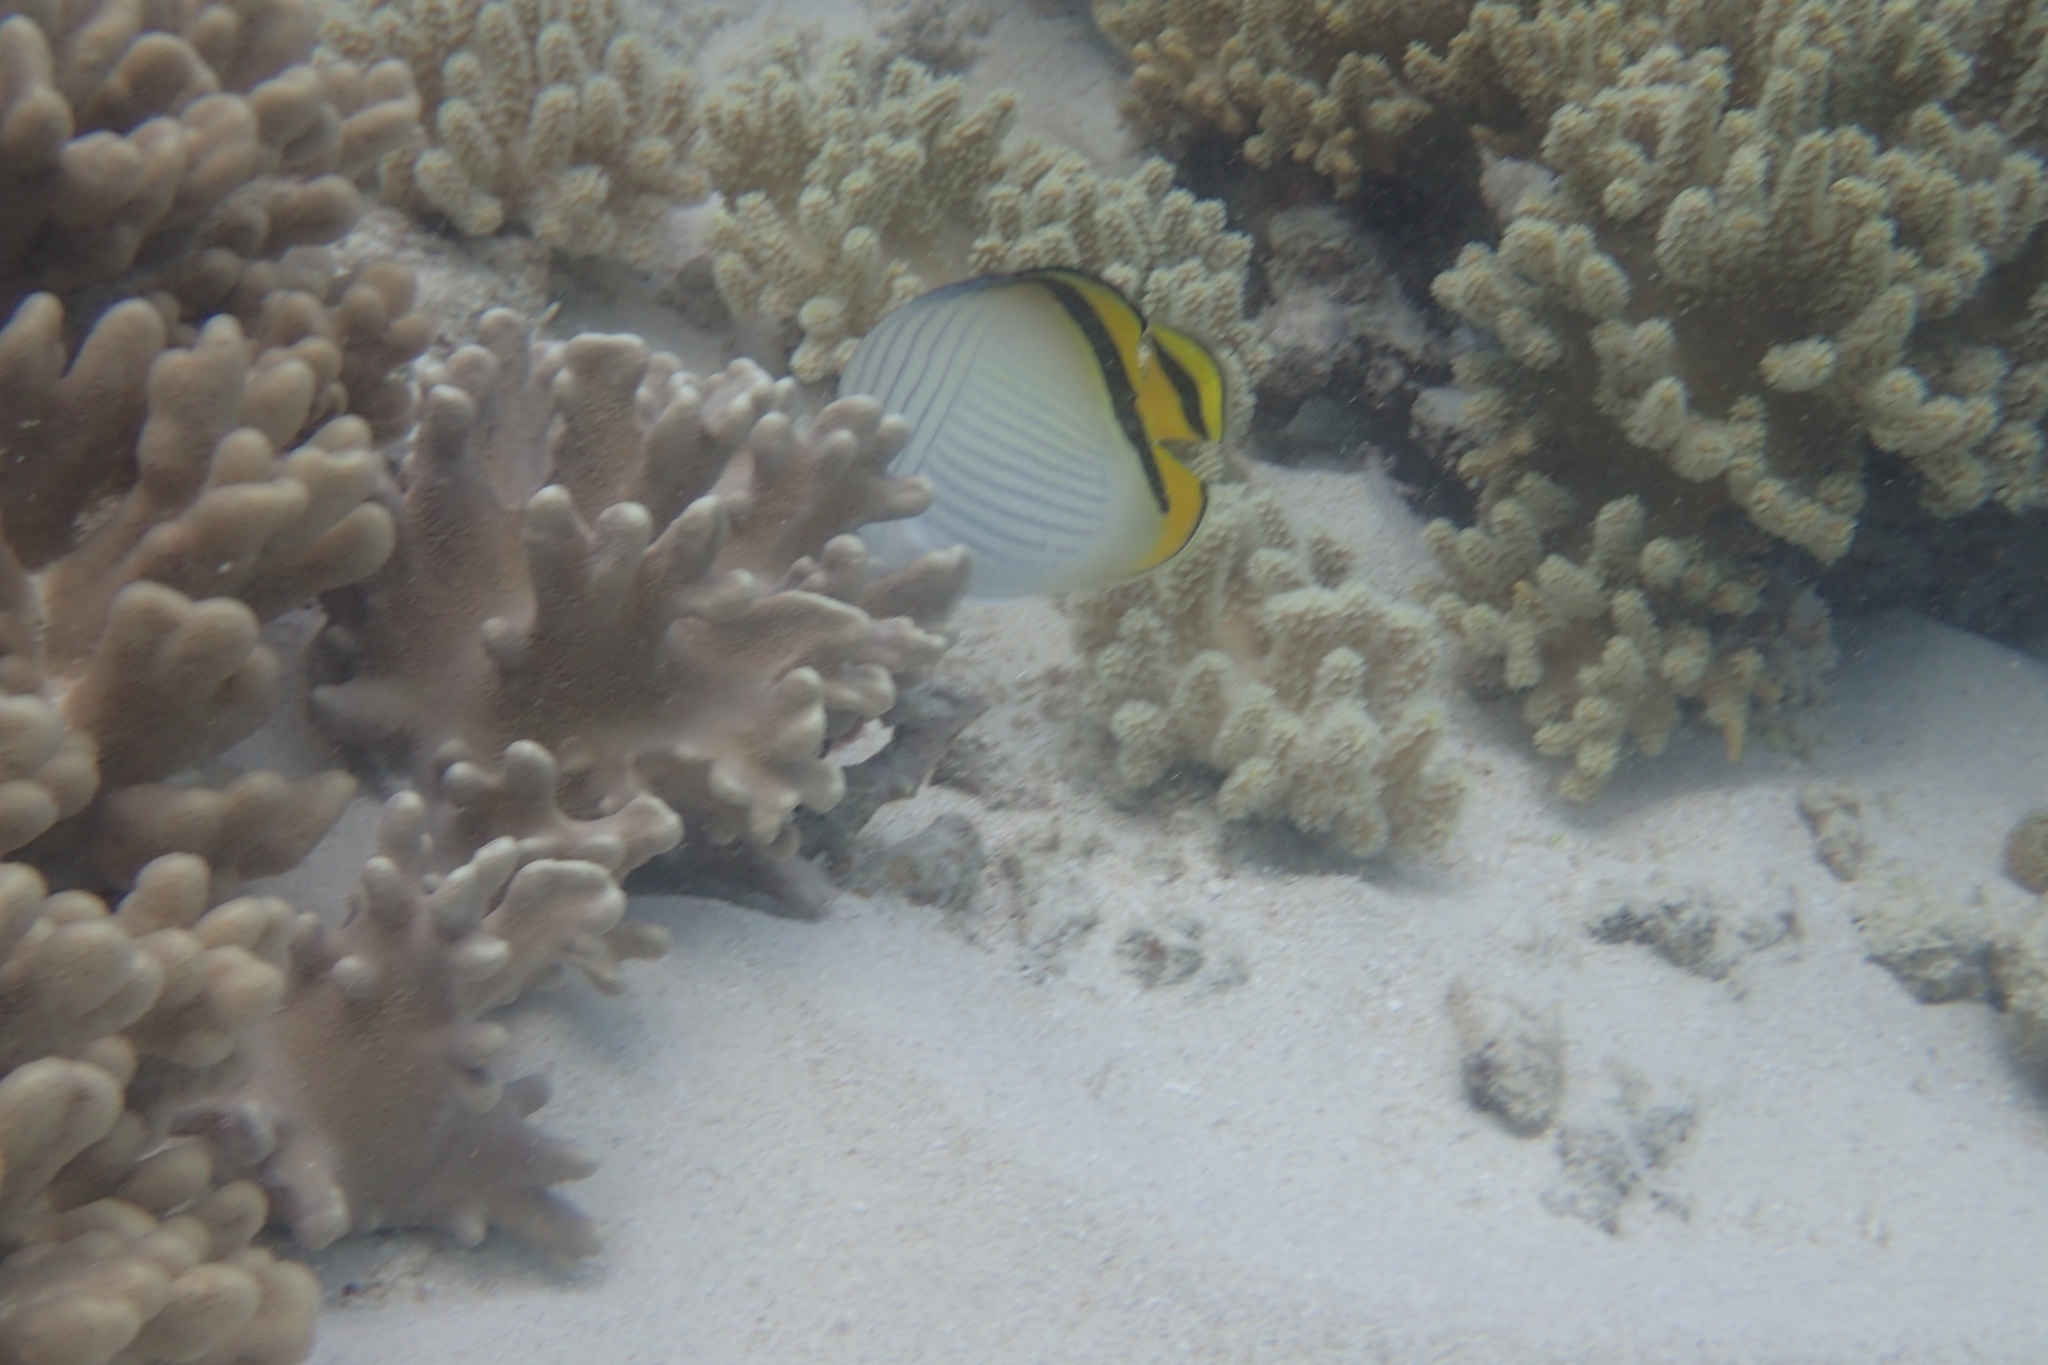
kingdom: Animalia
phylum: Chordata
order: Perciformes
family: Chaetodontidae
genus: Chaetodon
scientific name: Chaetodon vagabundus
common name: Vagabond butterflyfish
